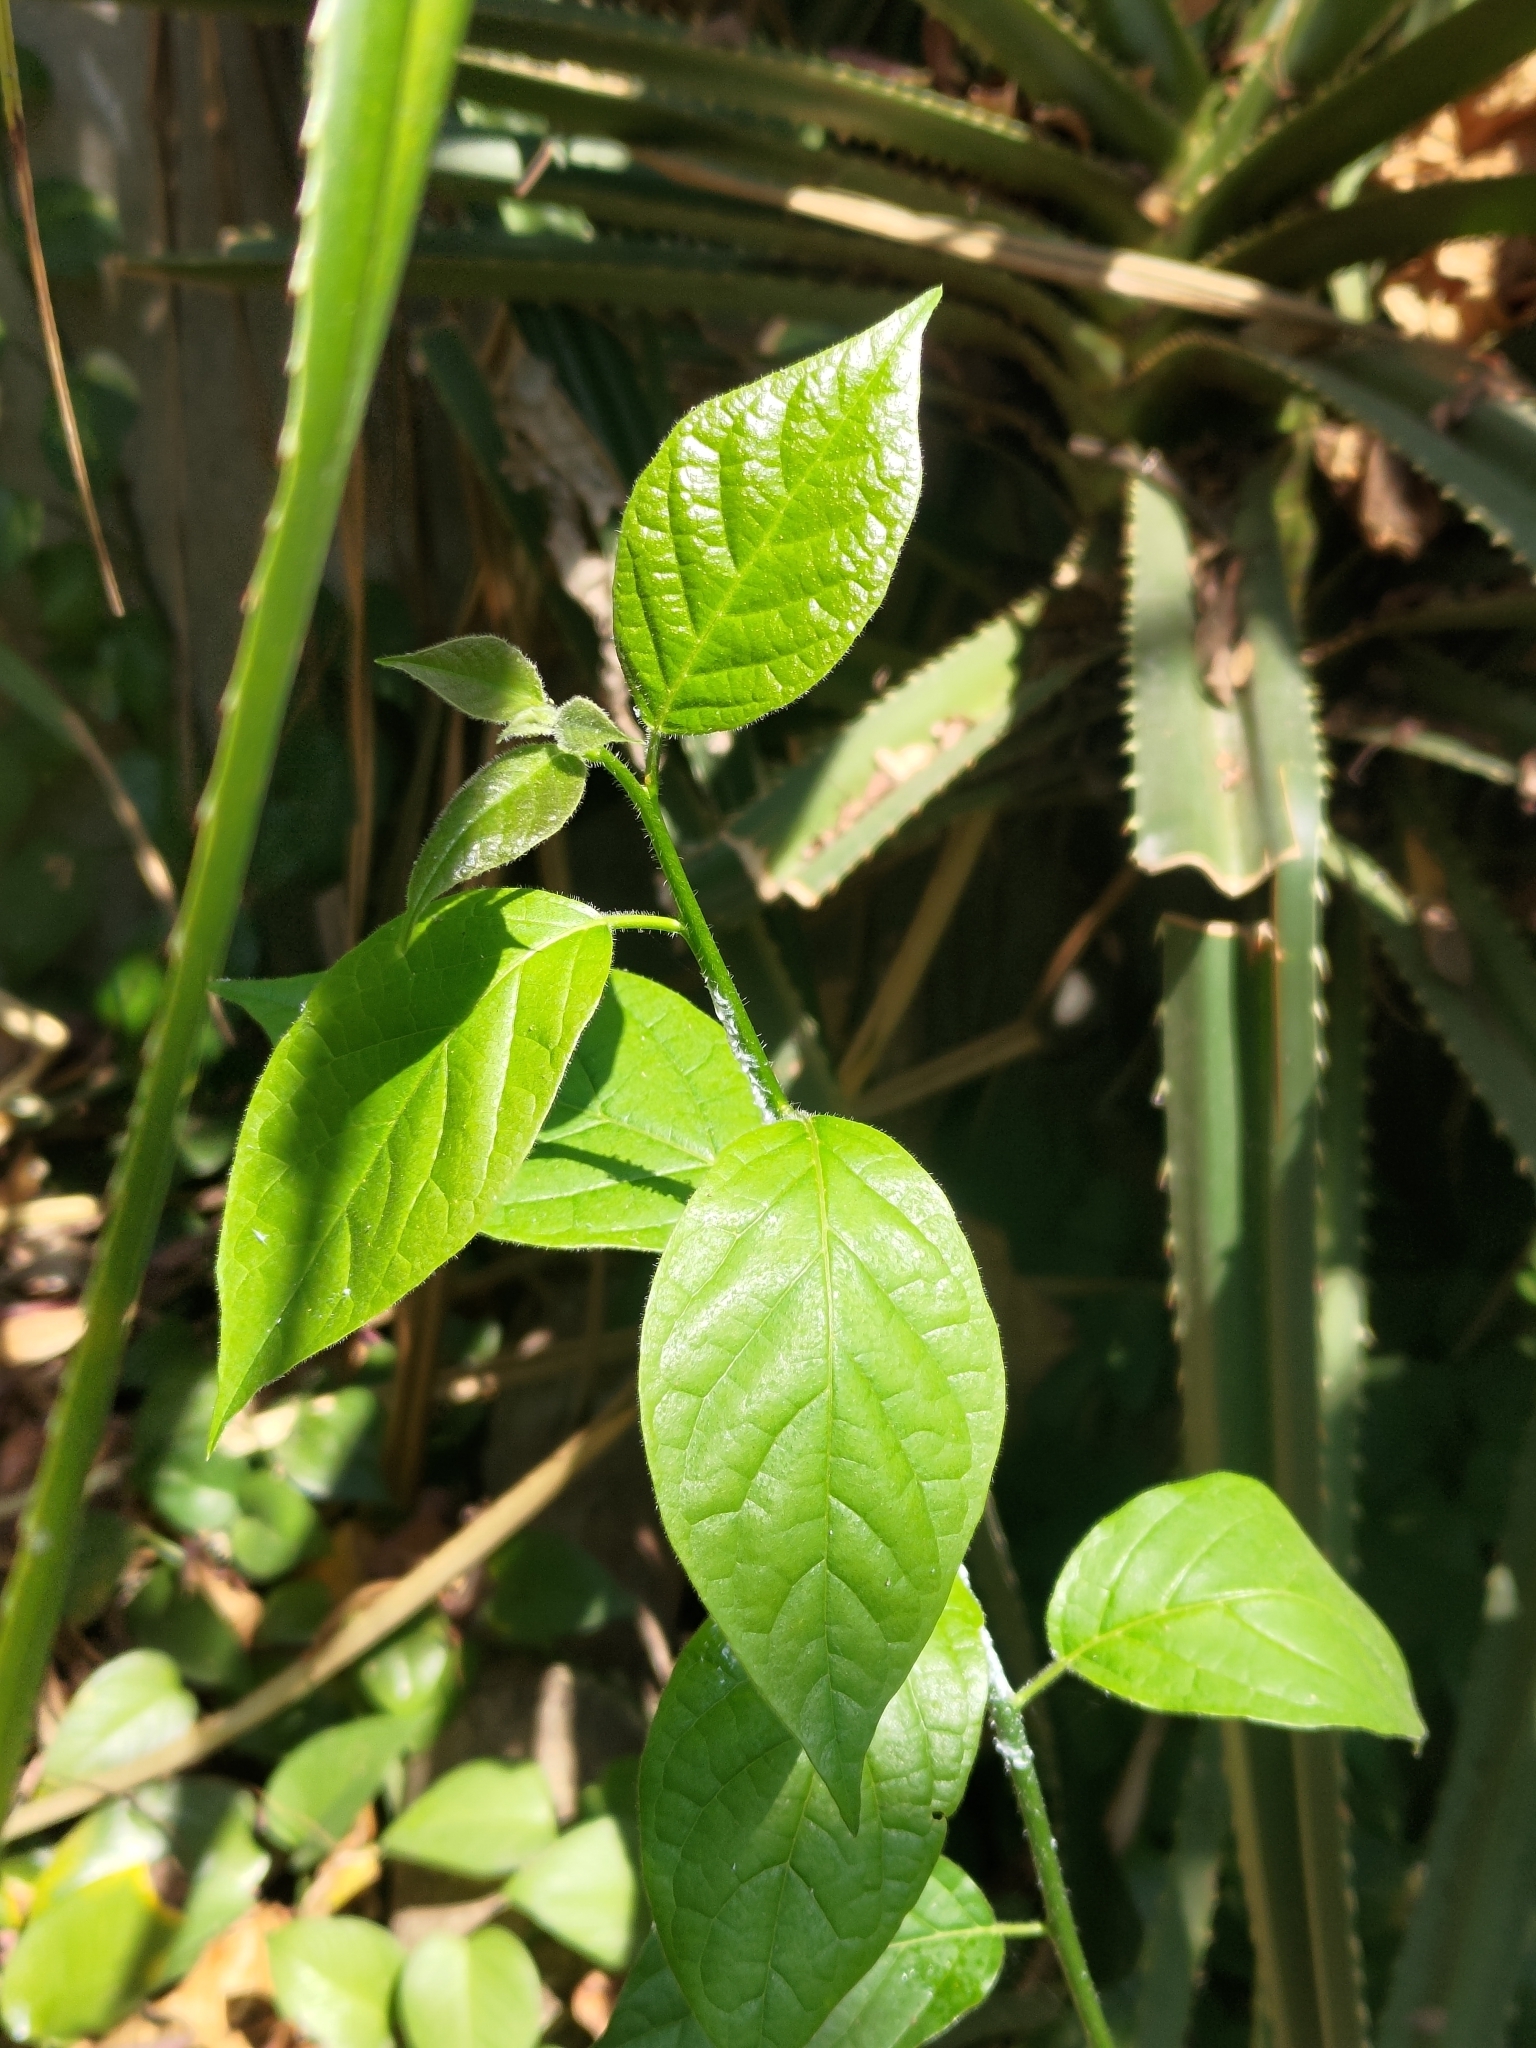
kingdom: Plantae
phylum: Tracheophyta
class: Magnoliopsida
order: Boraginales
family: Ehretiaceae
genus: Ehretia
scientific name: Ehretia resinosa
